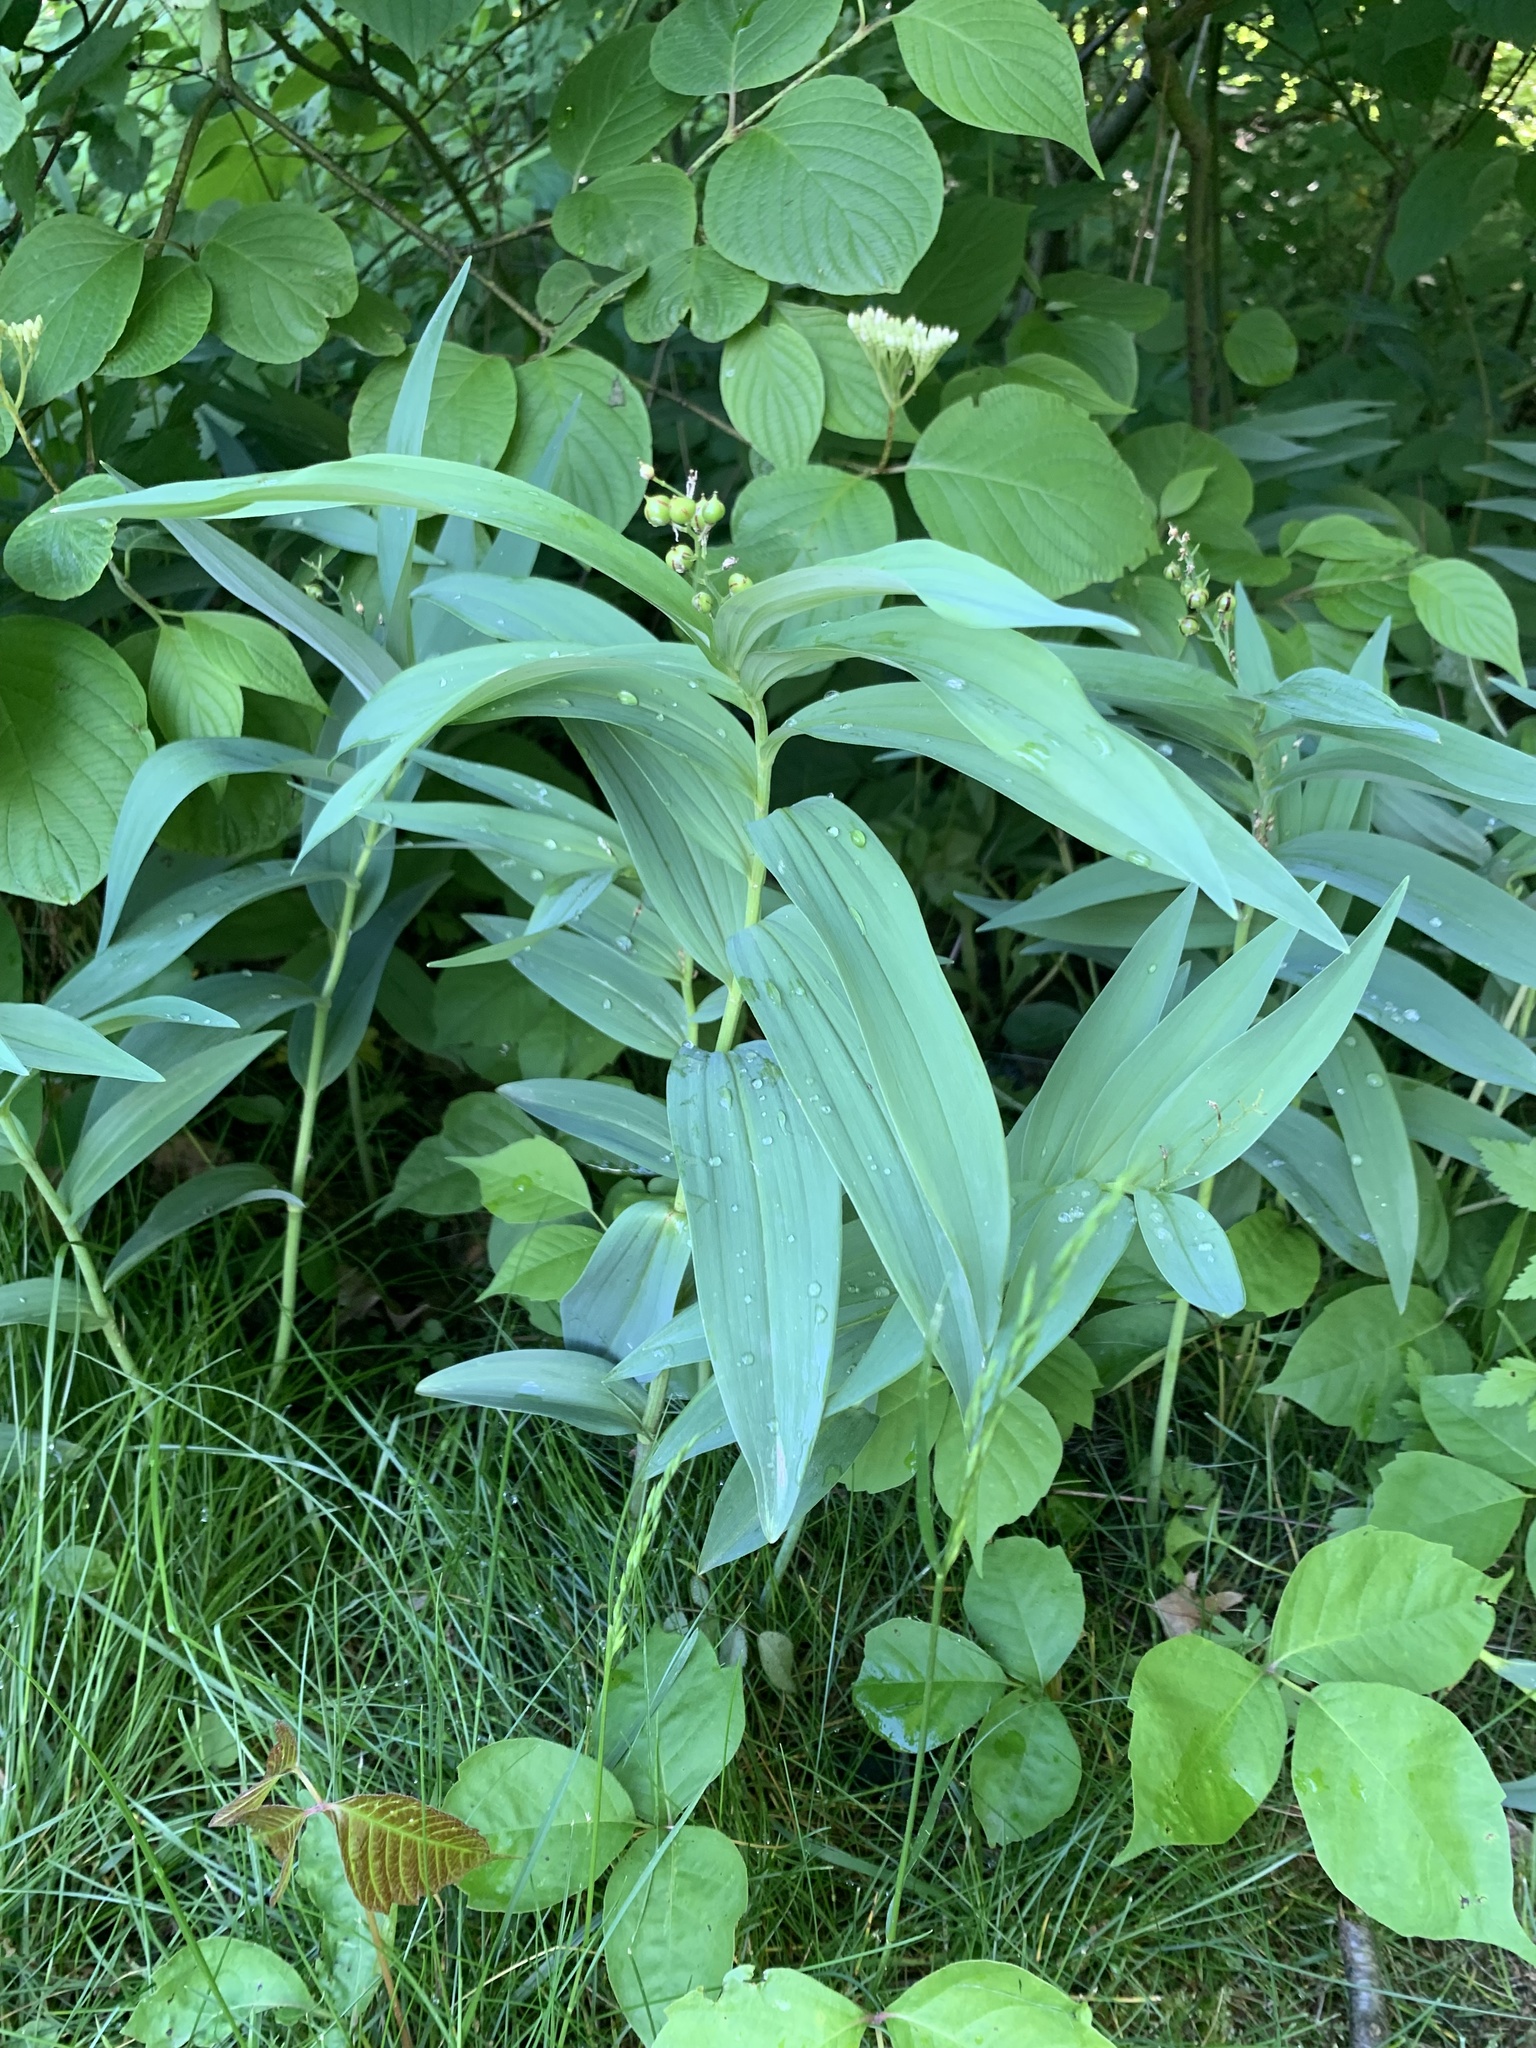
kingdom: Plantae
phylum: Tracheophyta
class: Liliopsida
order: Asparagales
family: Asparagaceae
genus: Maianthemum
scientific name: Maianthemum stellatum
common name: Little false solomon's seal
